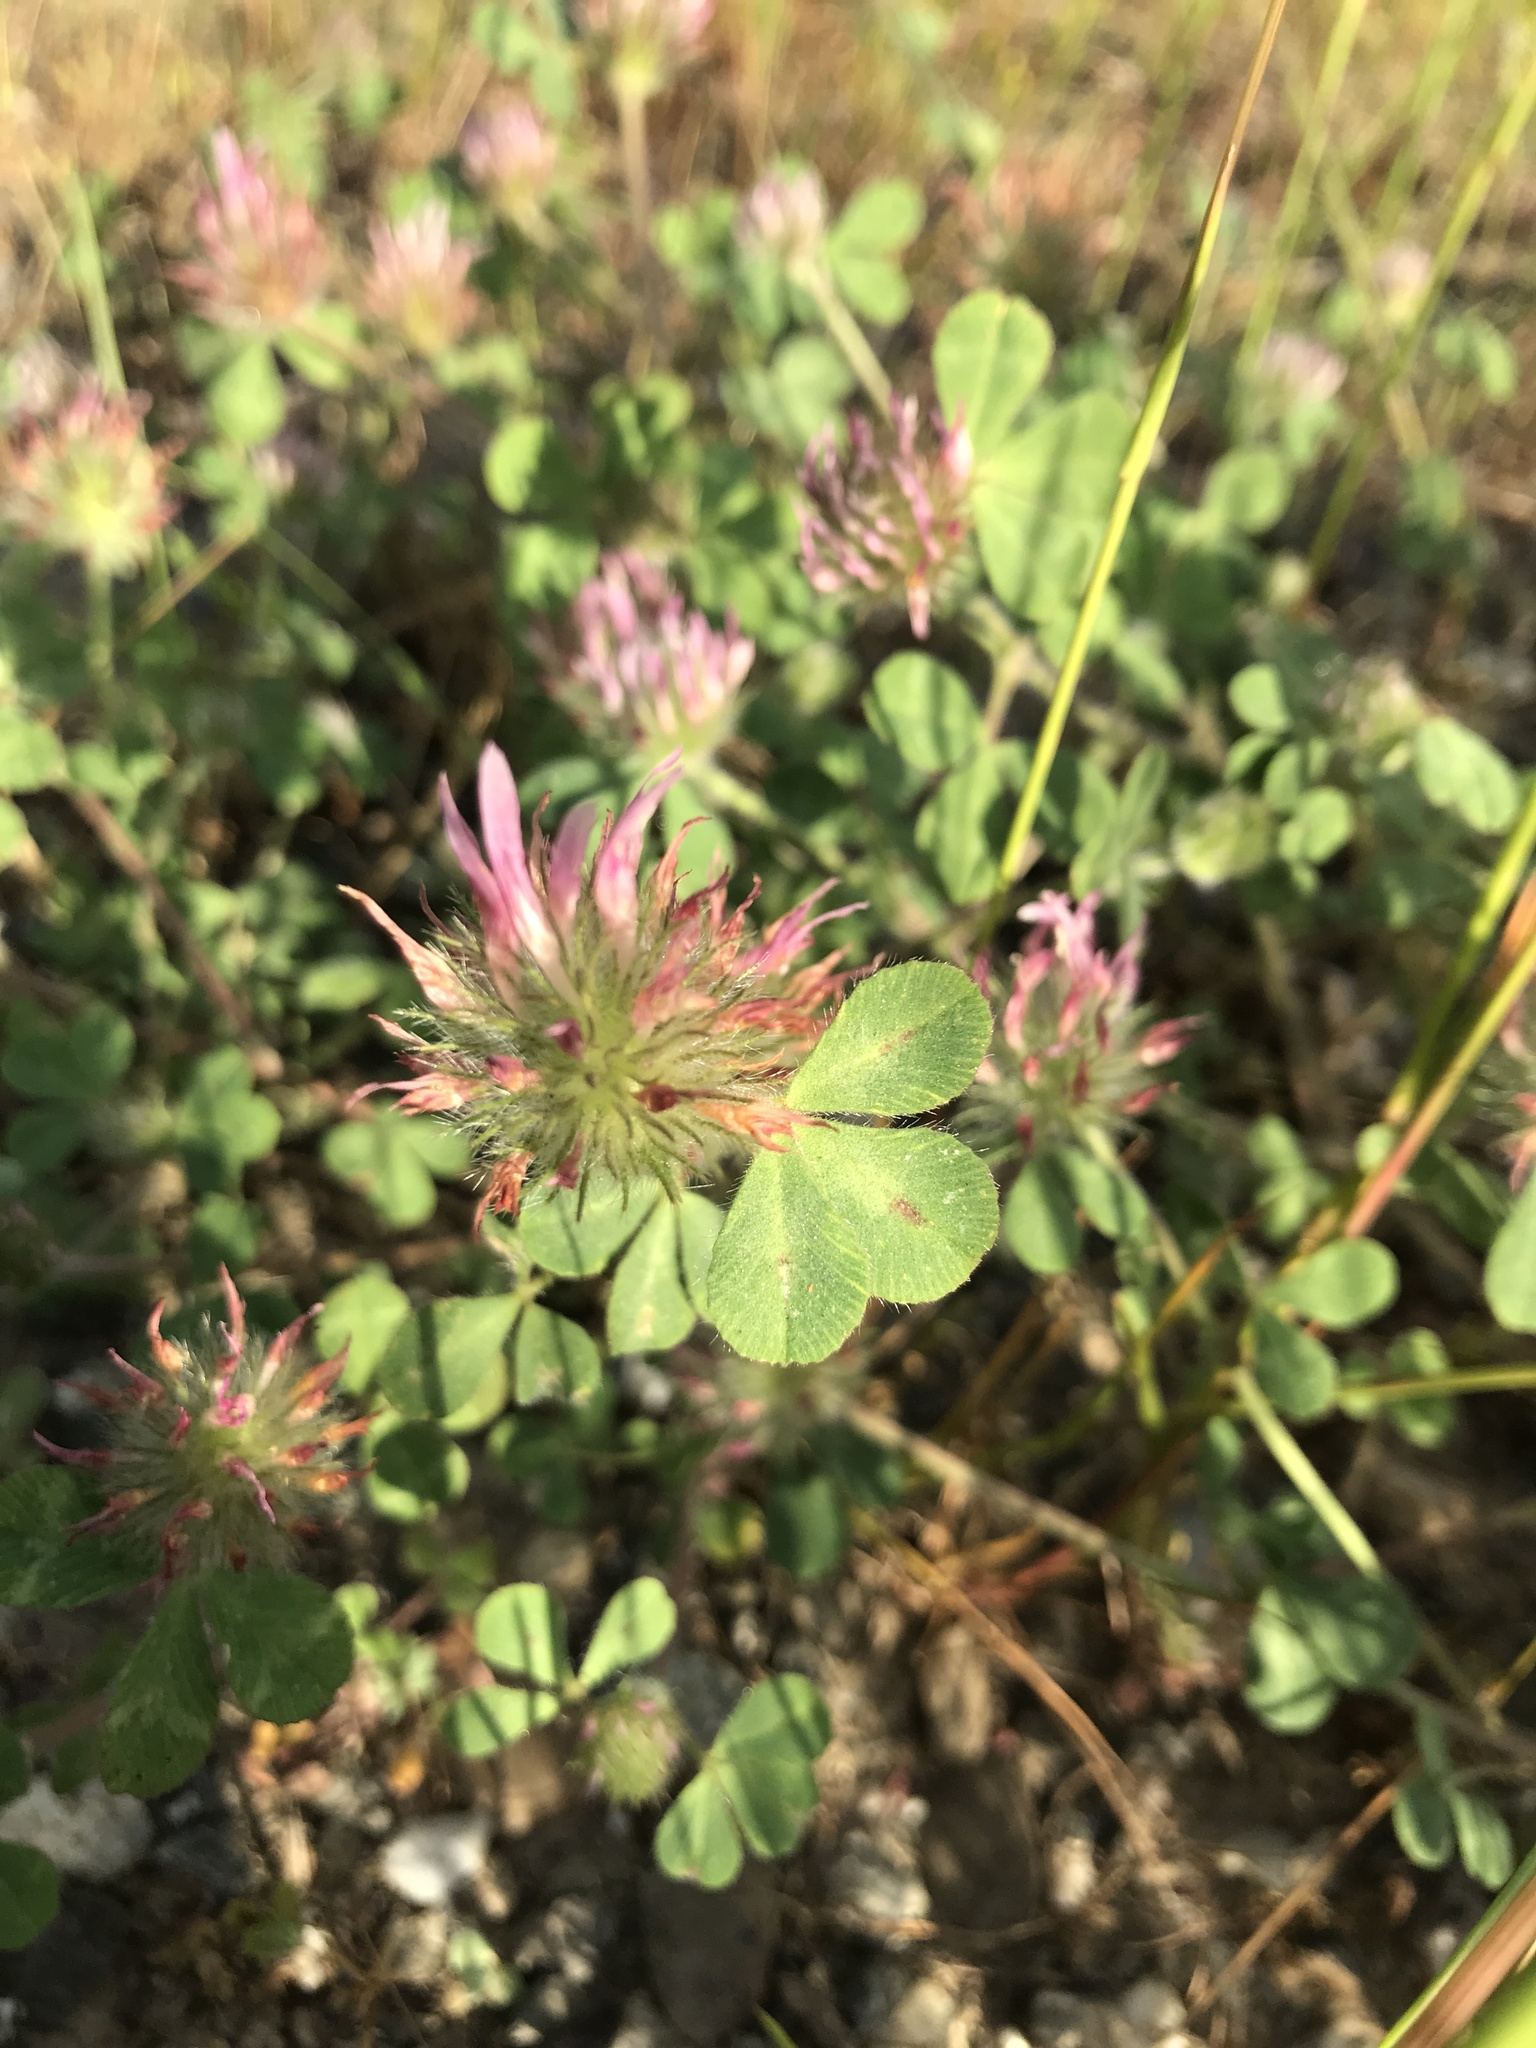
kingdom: Plantae
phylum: Tracheophyta
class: Magnoliopsida
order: Fabales
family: Fabaceae
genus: Trifolium
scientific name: Trifolium hirtum
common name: Rose clover
